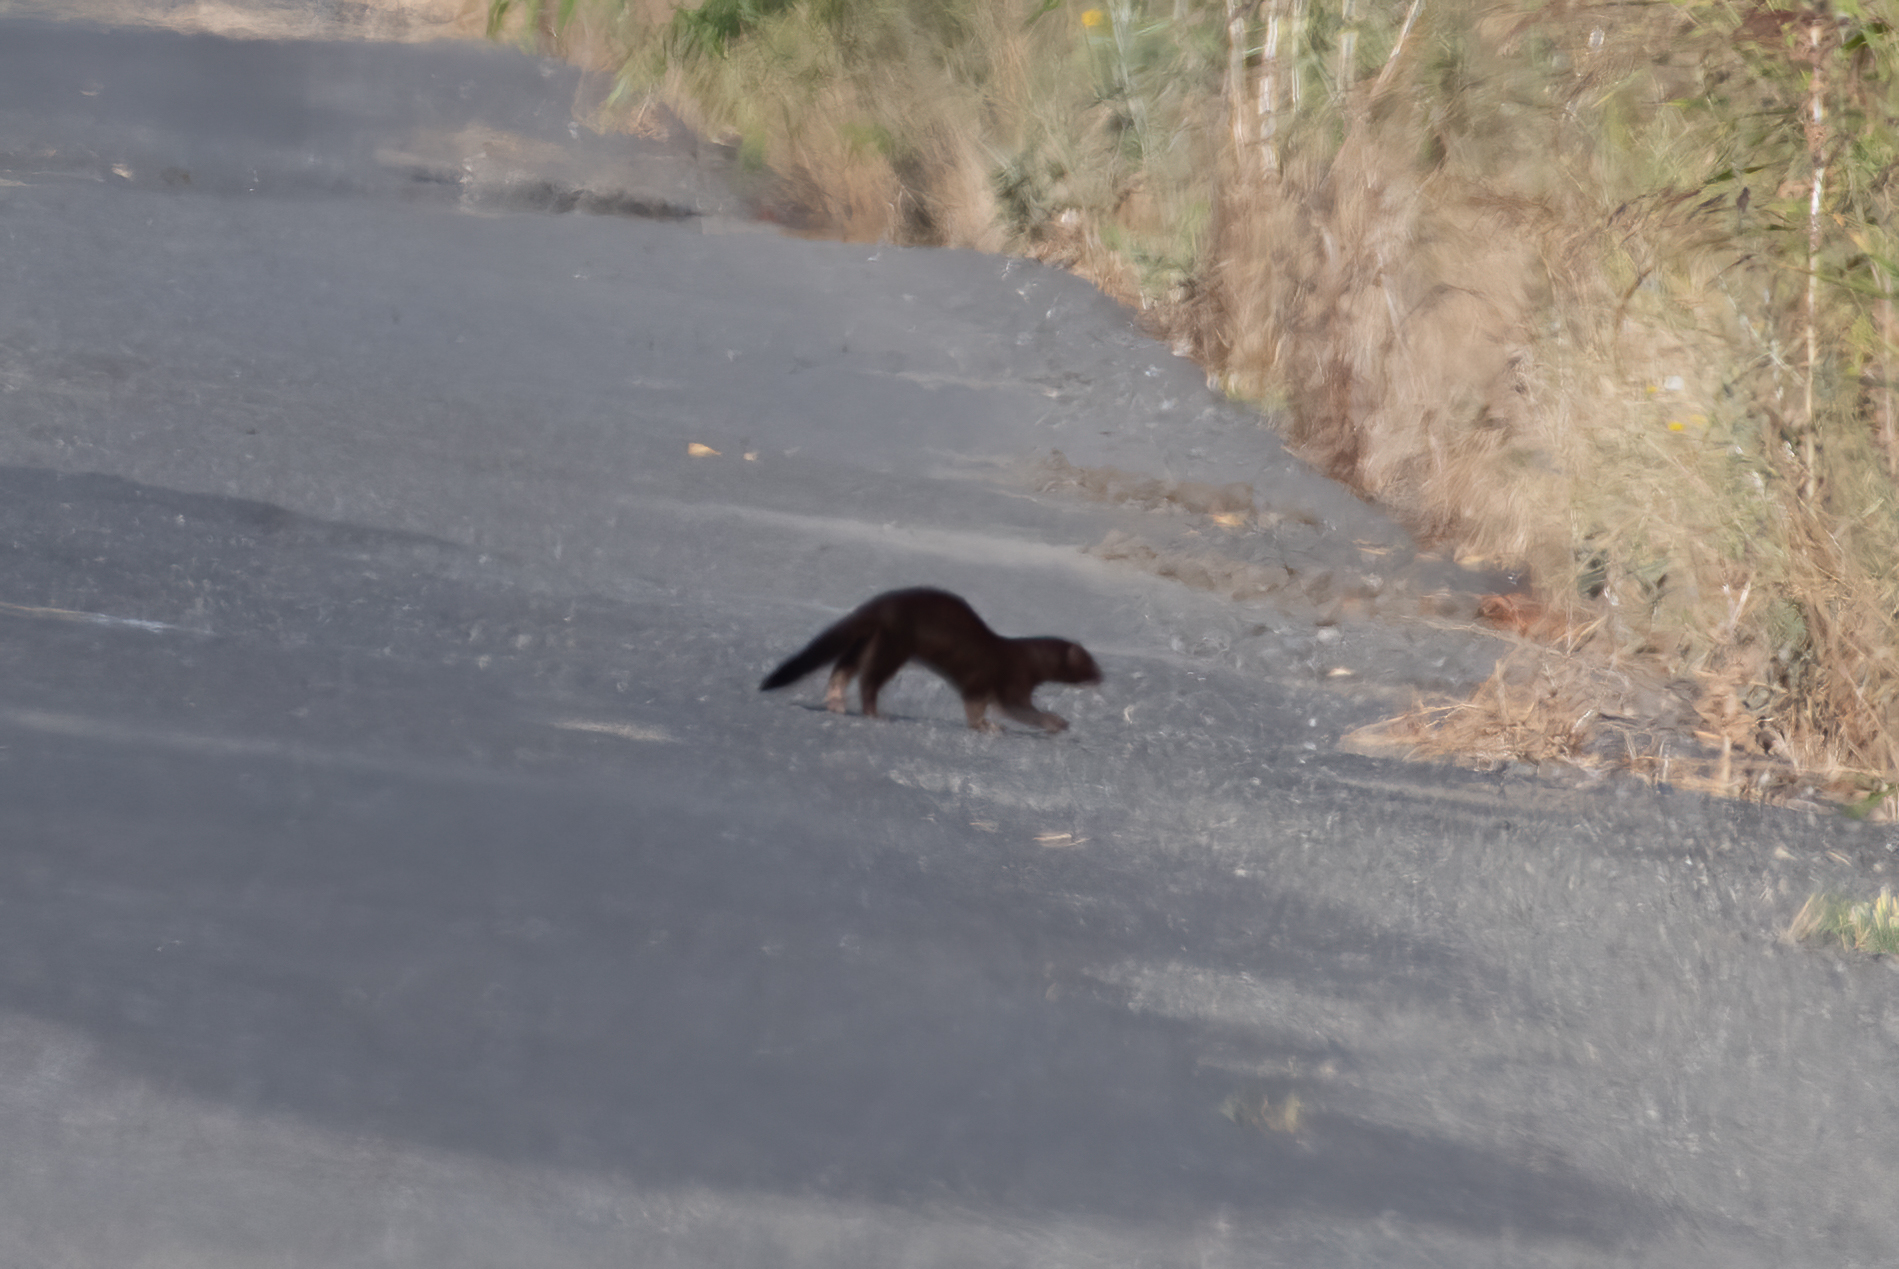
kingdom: Animalia
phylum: Chordata
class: Mammalia
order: Carnivora
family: Mustelidae
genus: Mustela
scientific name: Mustela
